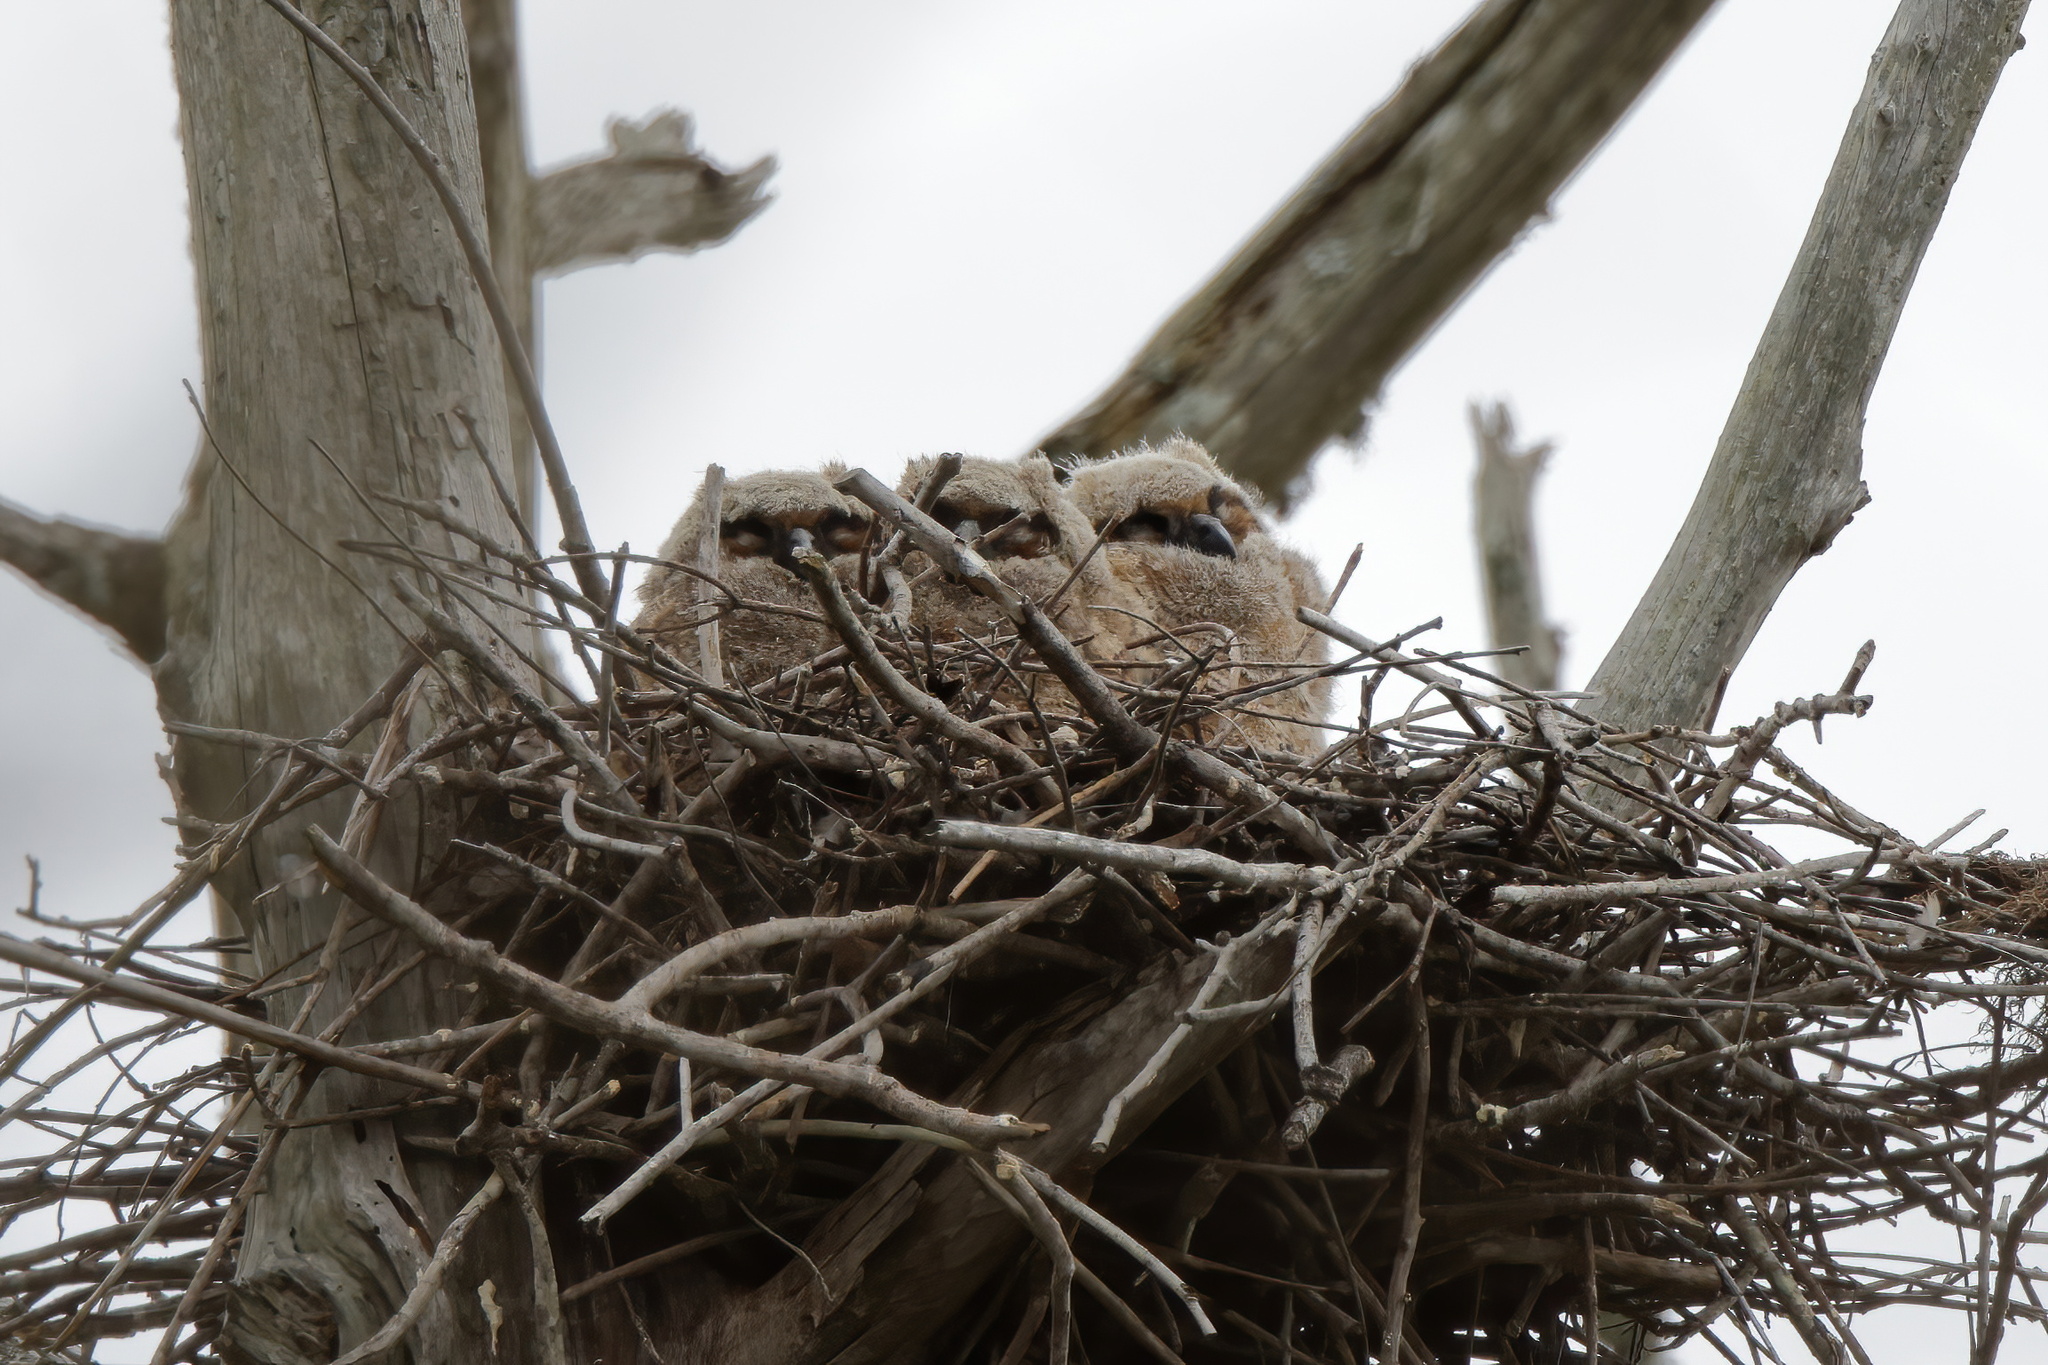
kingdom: Animalia
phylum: Chordata
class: Aves
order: Strigiformes
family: Strigidae
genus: Bubo
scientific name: Bubo virginianus
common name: Great horned owl
